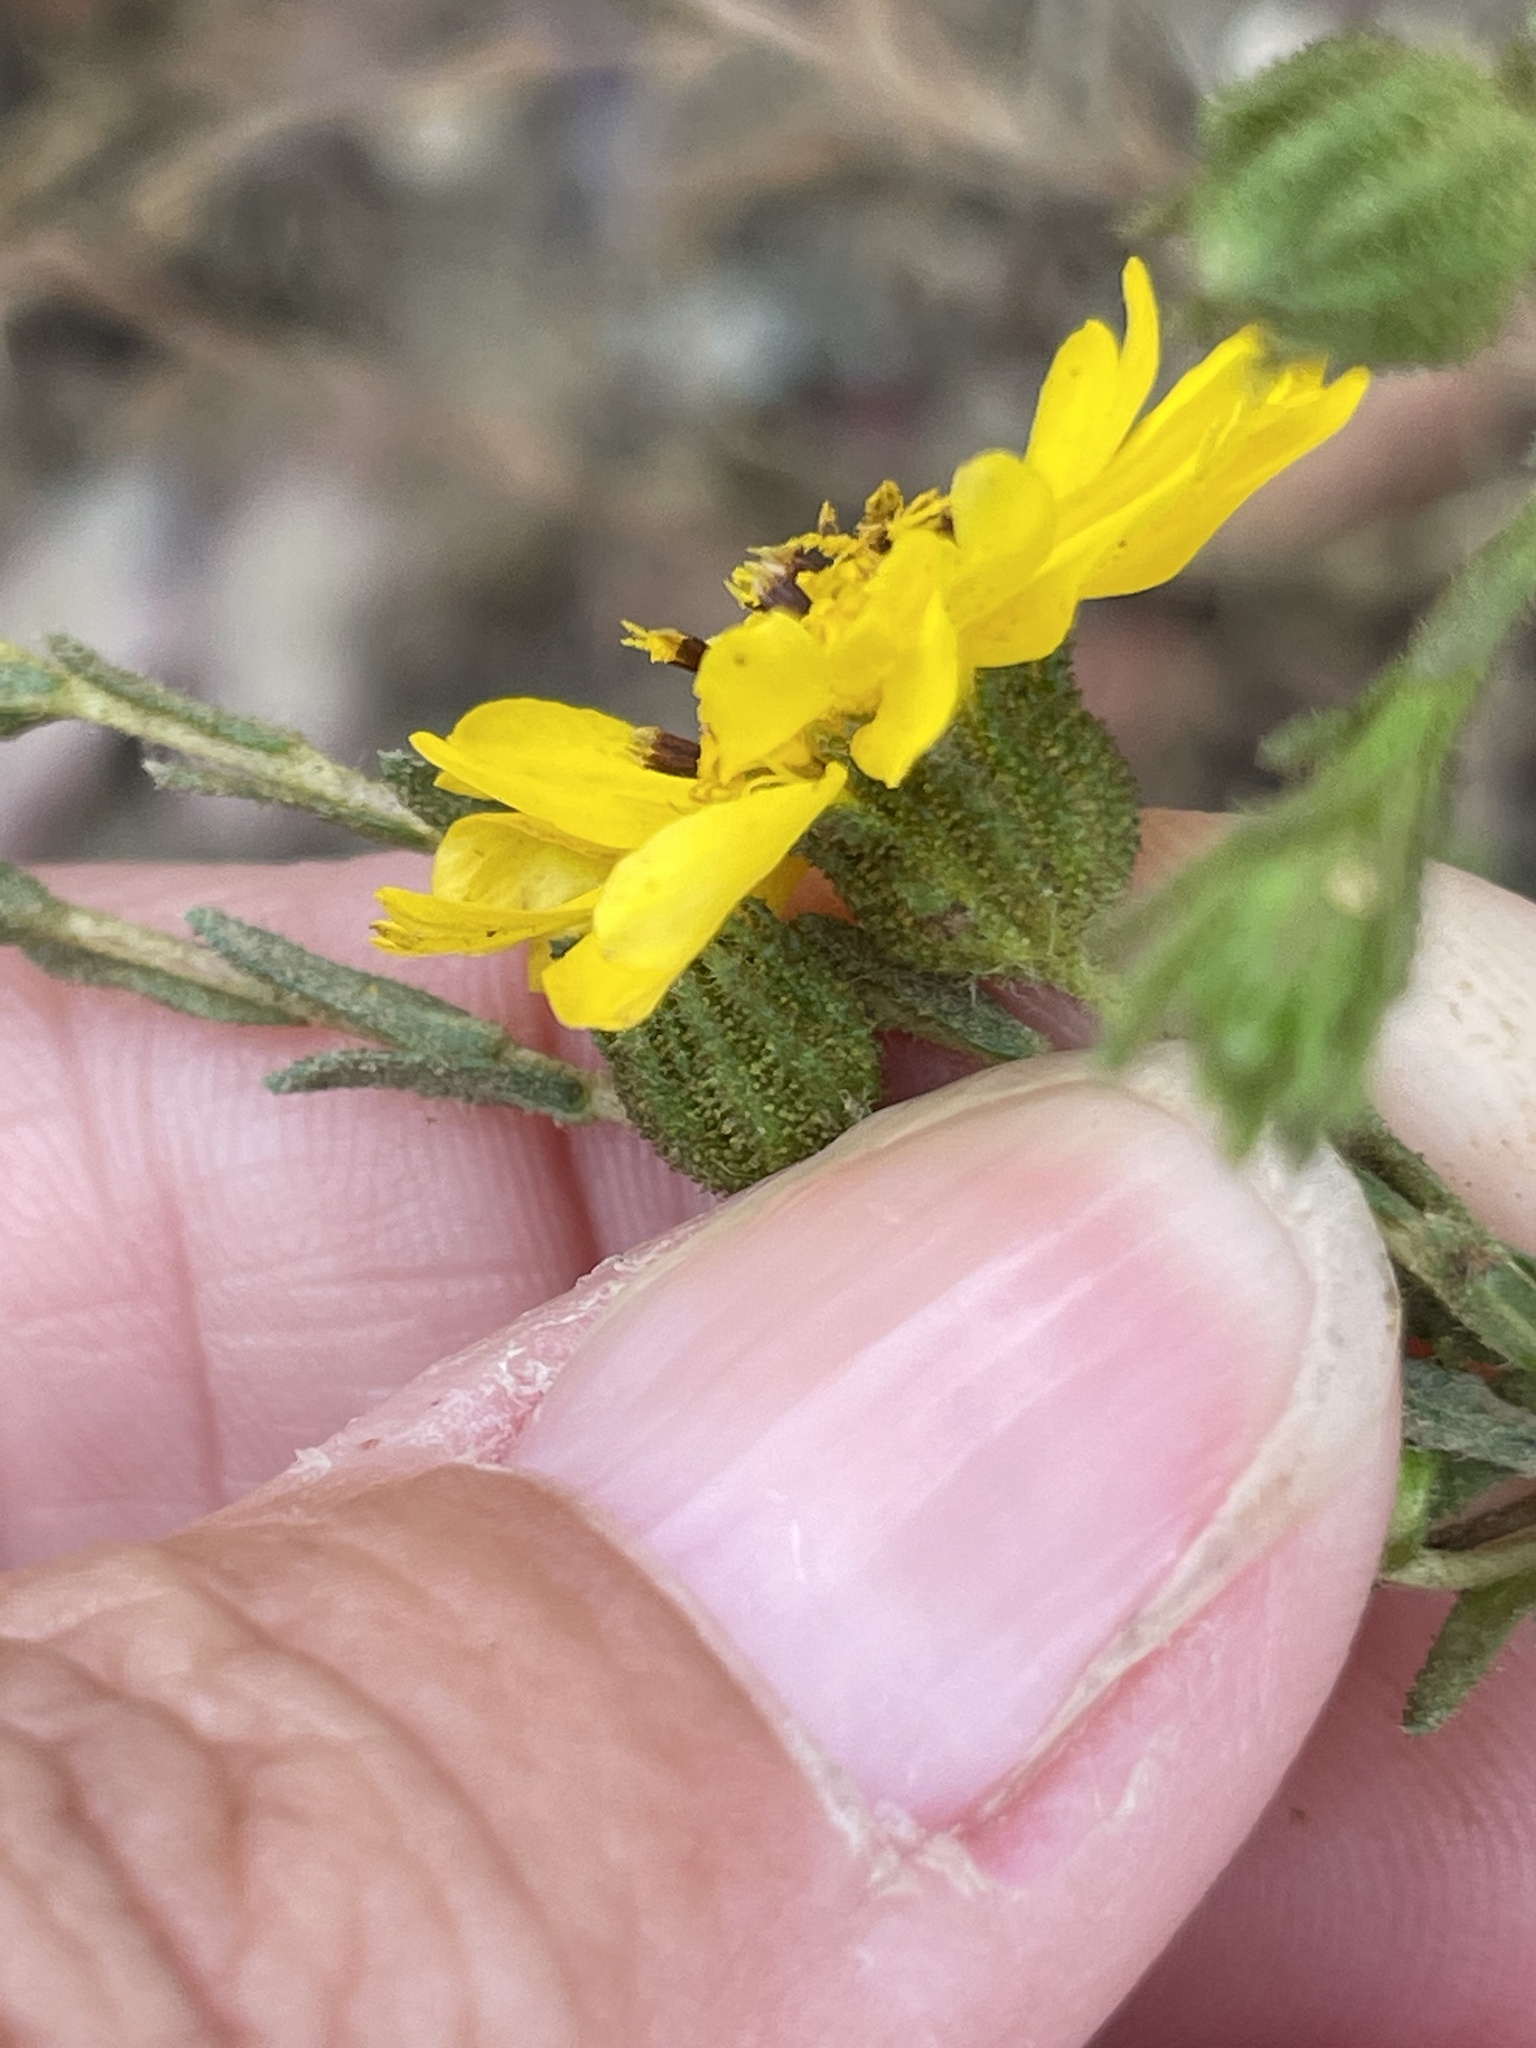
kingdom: Plantae
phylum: Tracheophyta
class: Magnoliopsida
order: Asterales
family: Asteraceae
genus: Deinandra
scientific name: Deinandra conjugens
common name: Otay tarplant
